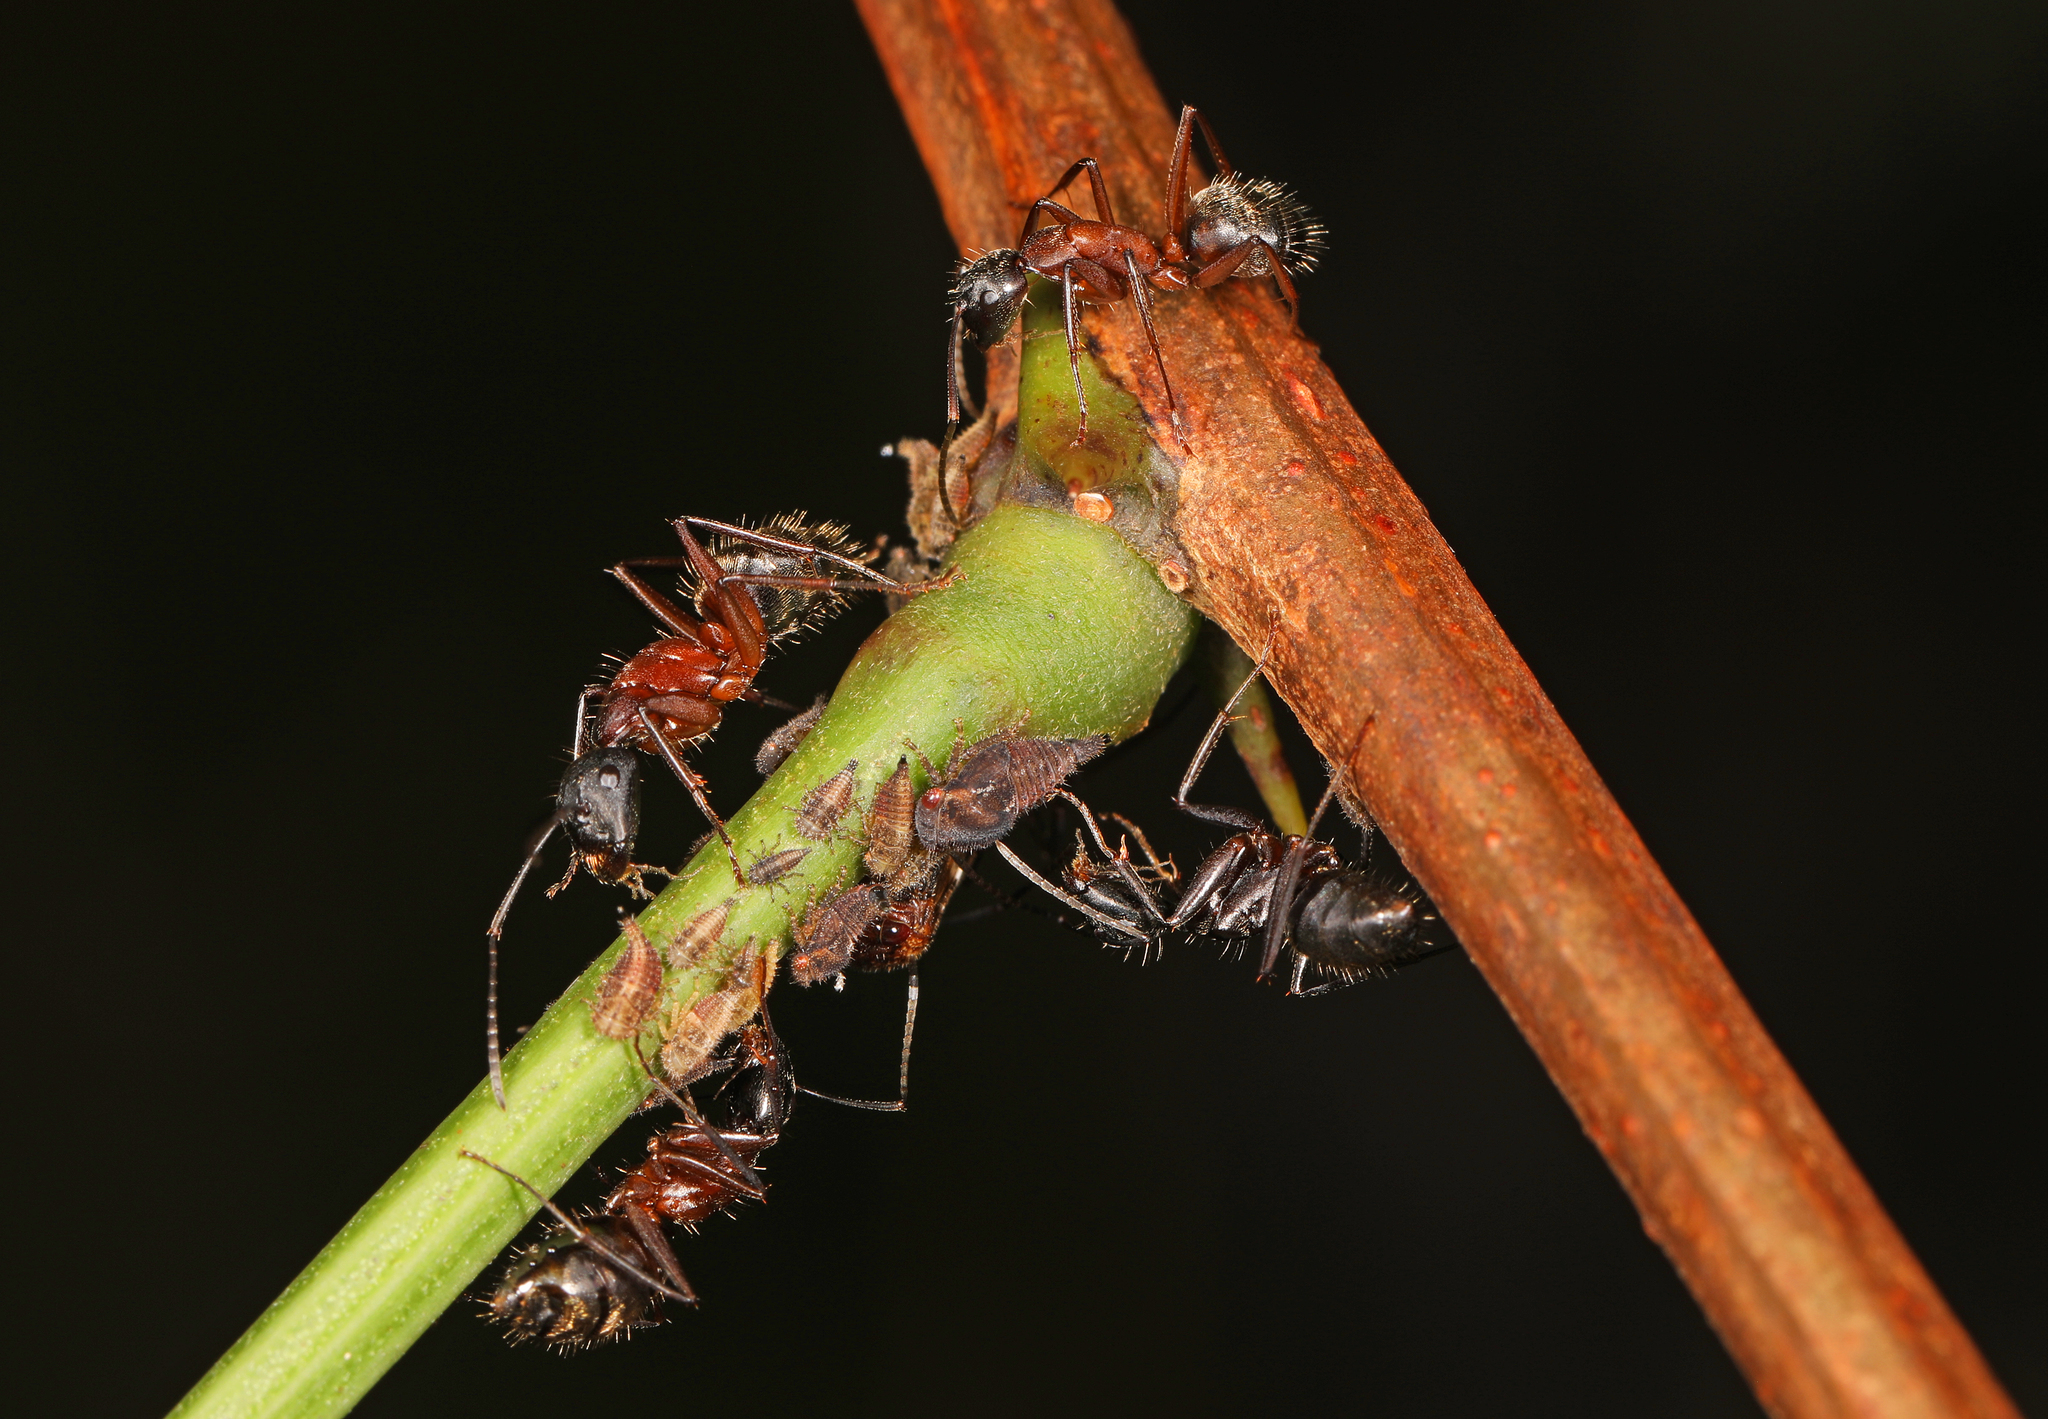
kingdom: Animalia
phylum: Arthropoda
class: Insecta
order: Hymenoptera
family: Formicidae
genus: Camponotus
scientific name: Camponotus chromaiodes
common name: Red carpenter ant
